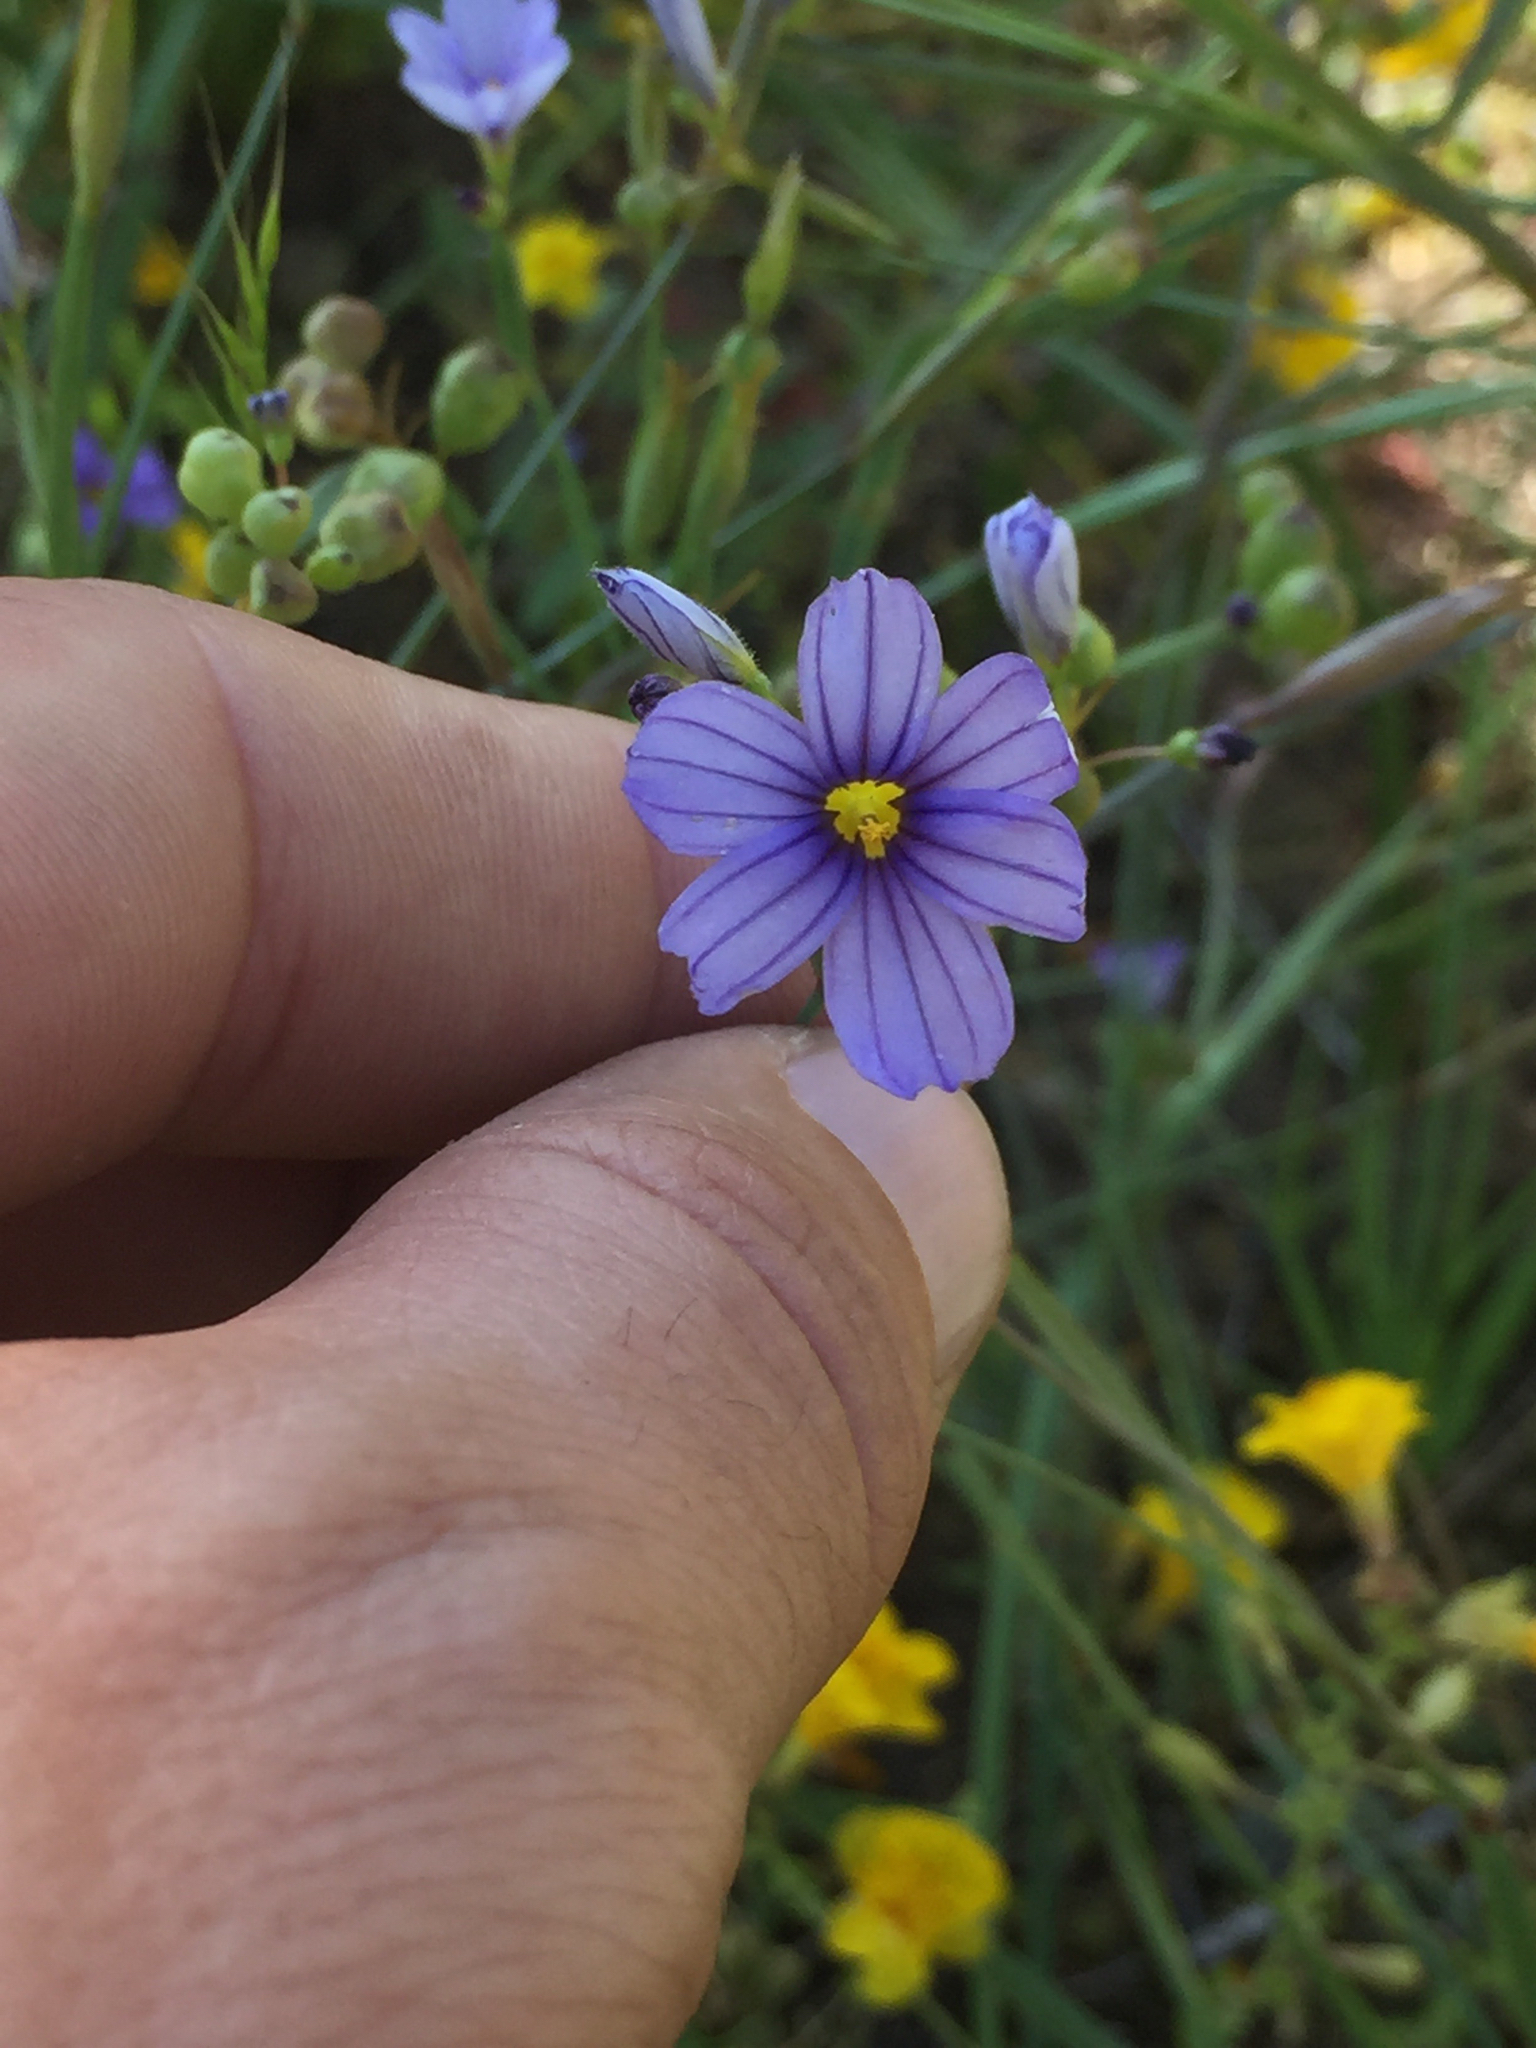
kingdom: Plantae
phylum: Tracheophyta
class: Liliopsida
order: Asparagales
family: Iridaceae
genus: Sisyrinchium
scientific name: Sisyrinchium bellum
